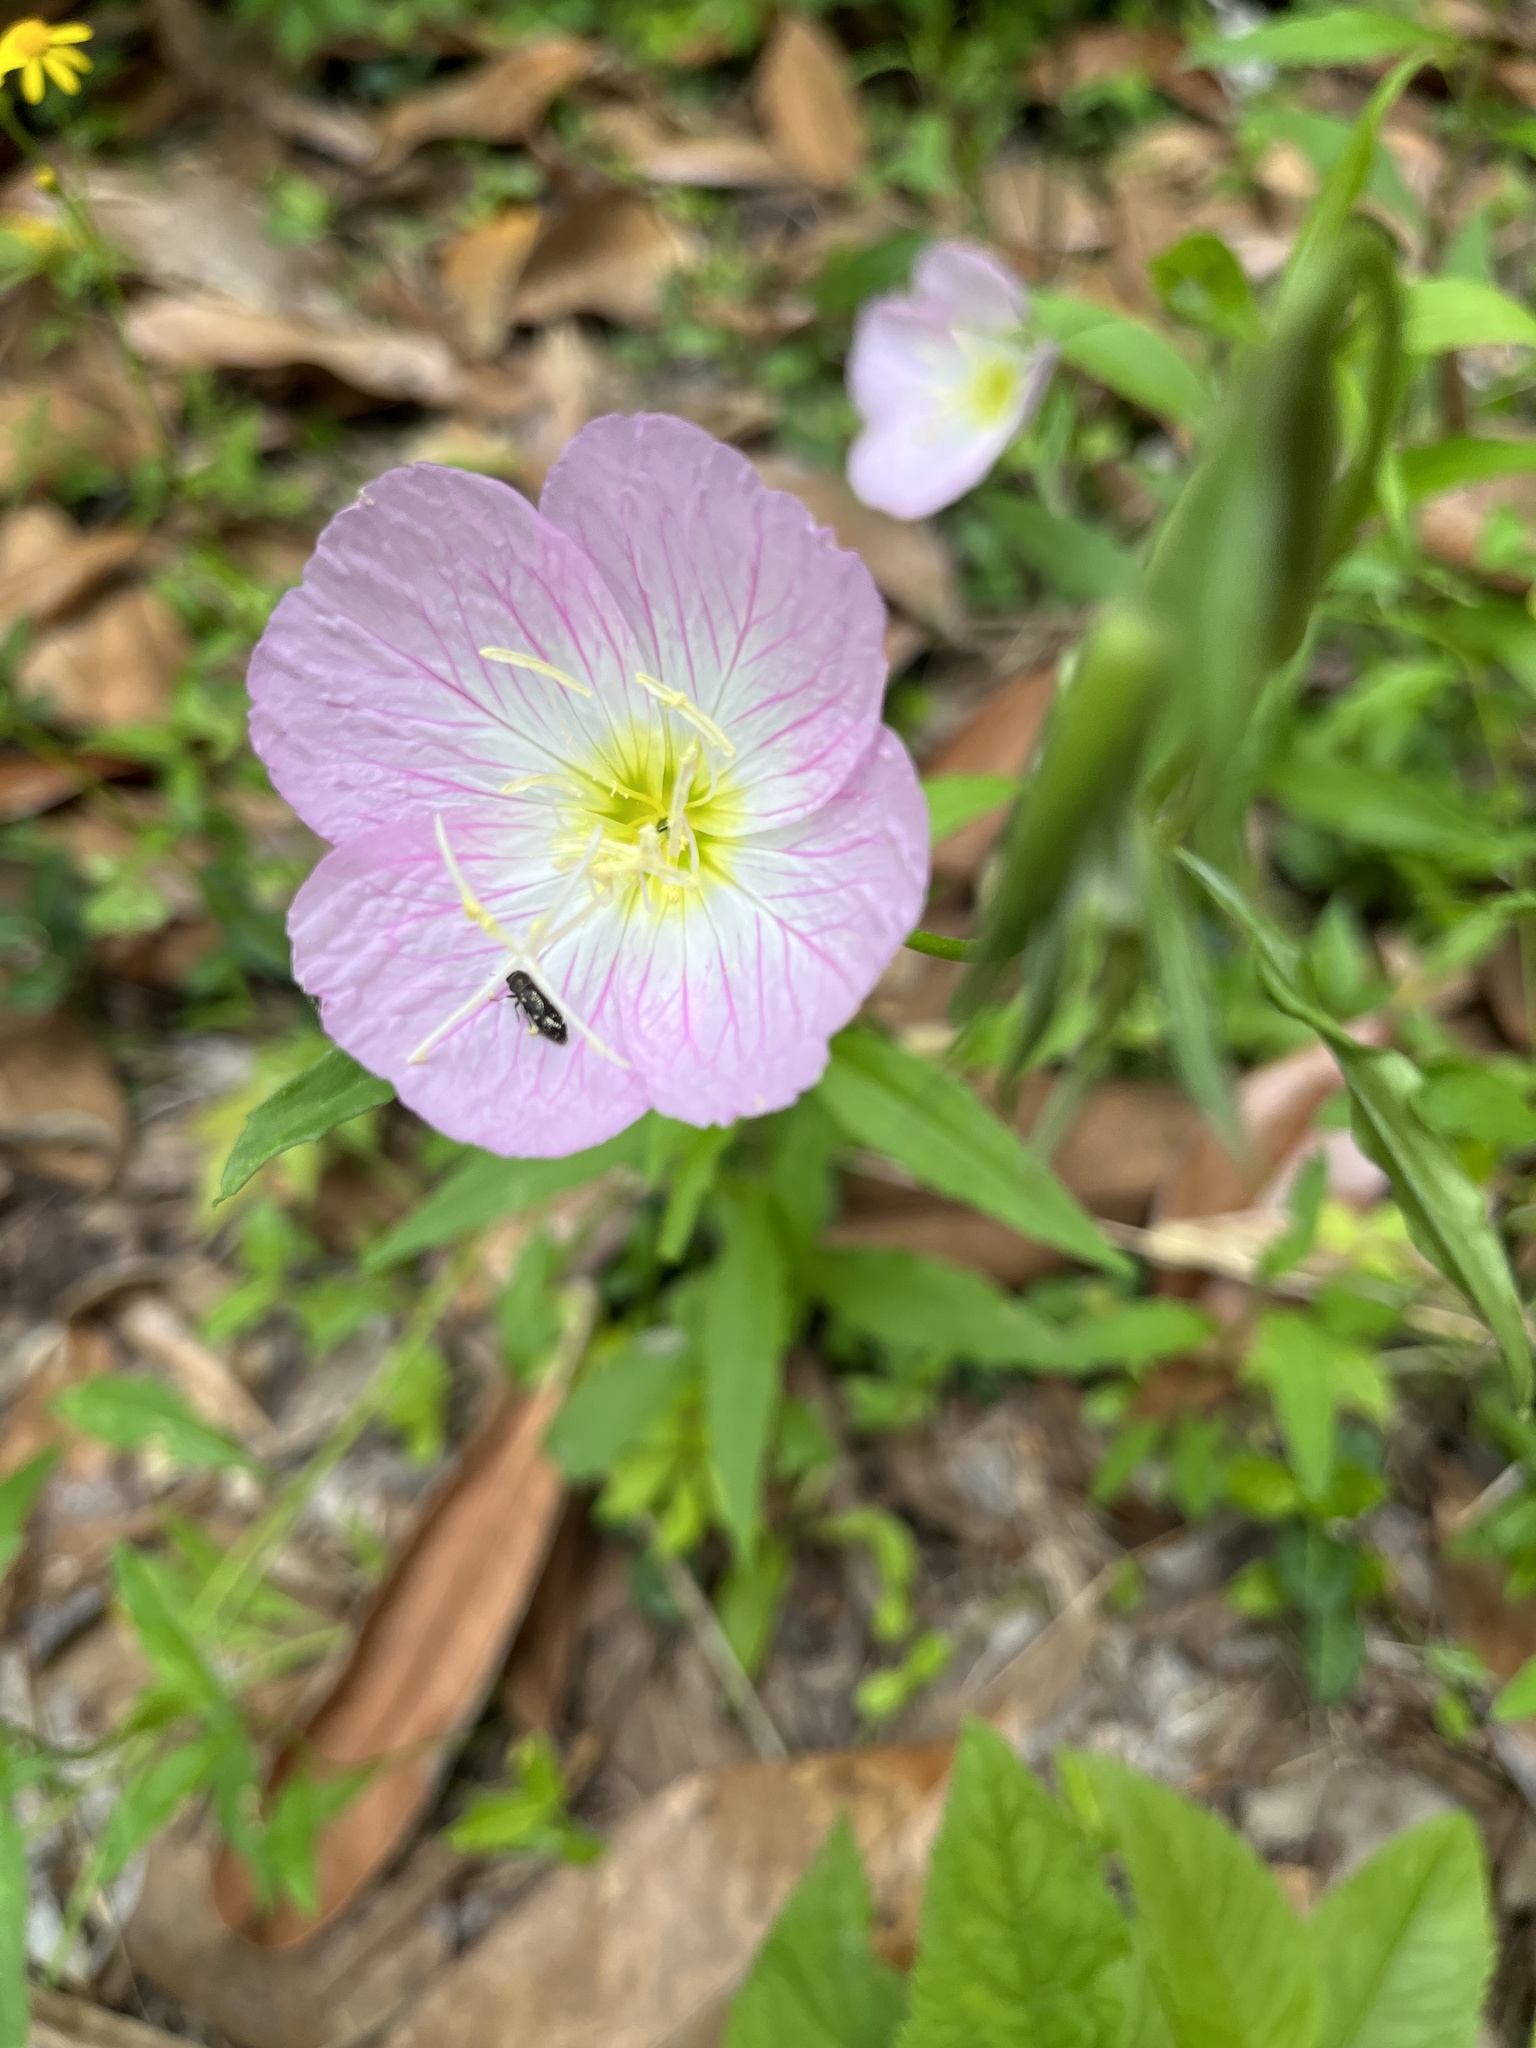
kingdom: Plantae
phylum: Tracheophyta
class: Magnoliopsida
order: Myrtales
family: Onagraceae
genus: Oenothera
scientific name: Oenothera speciosa
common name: White evening-primrose
